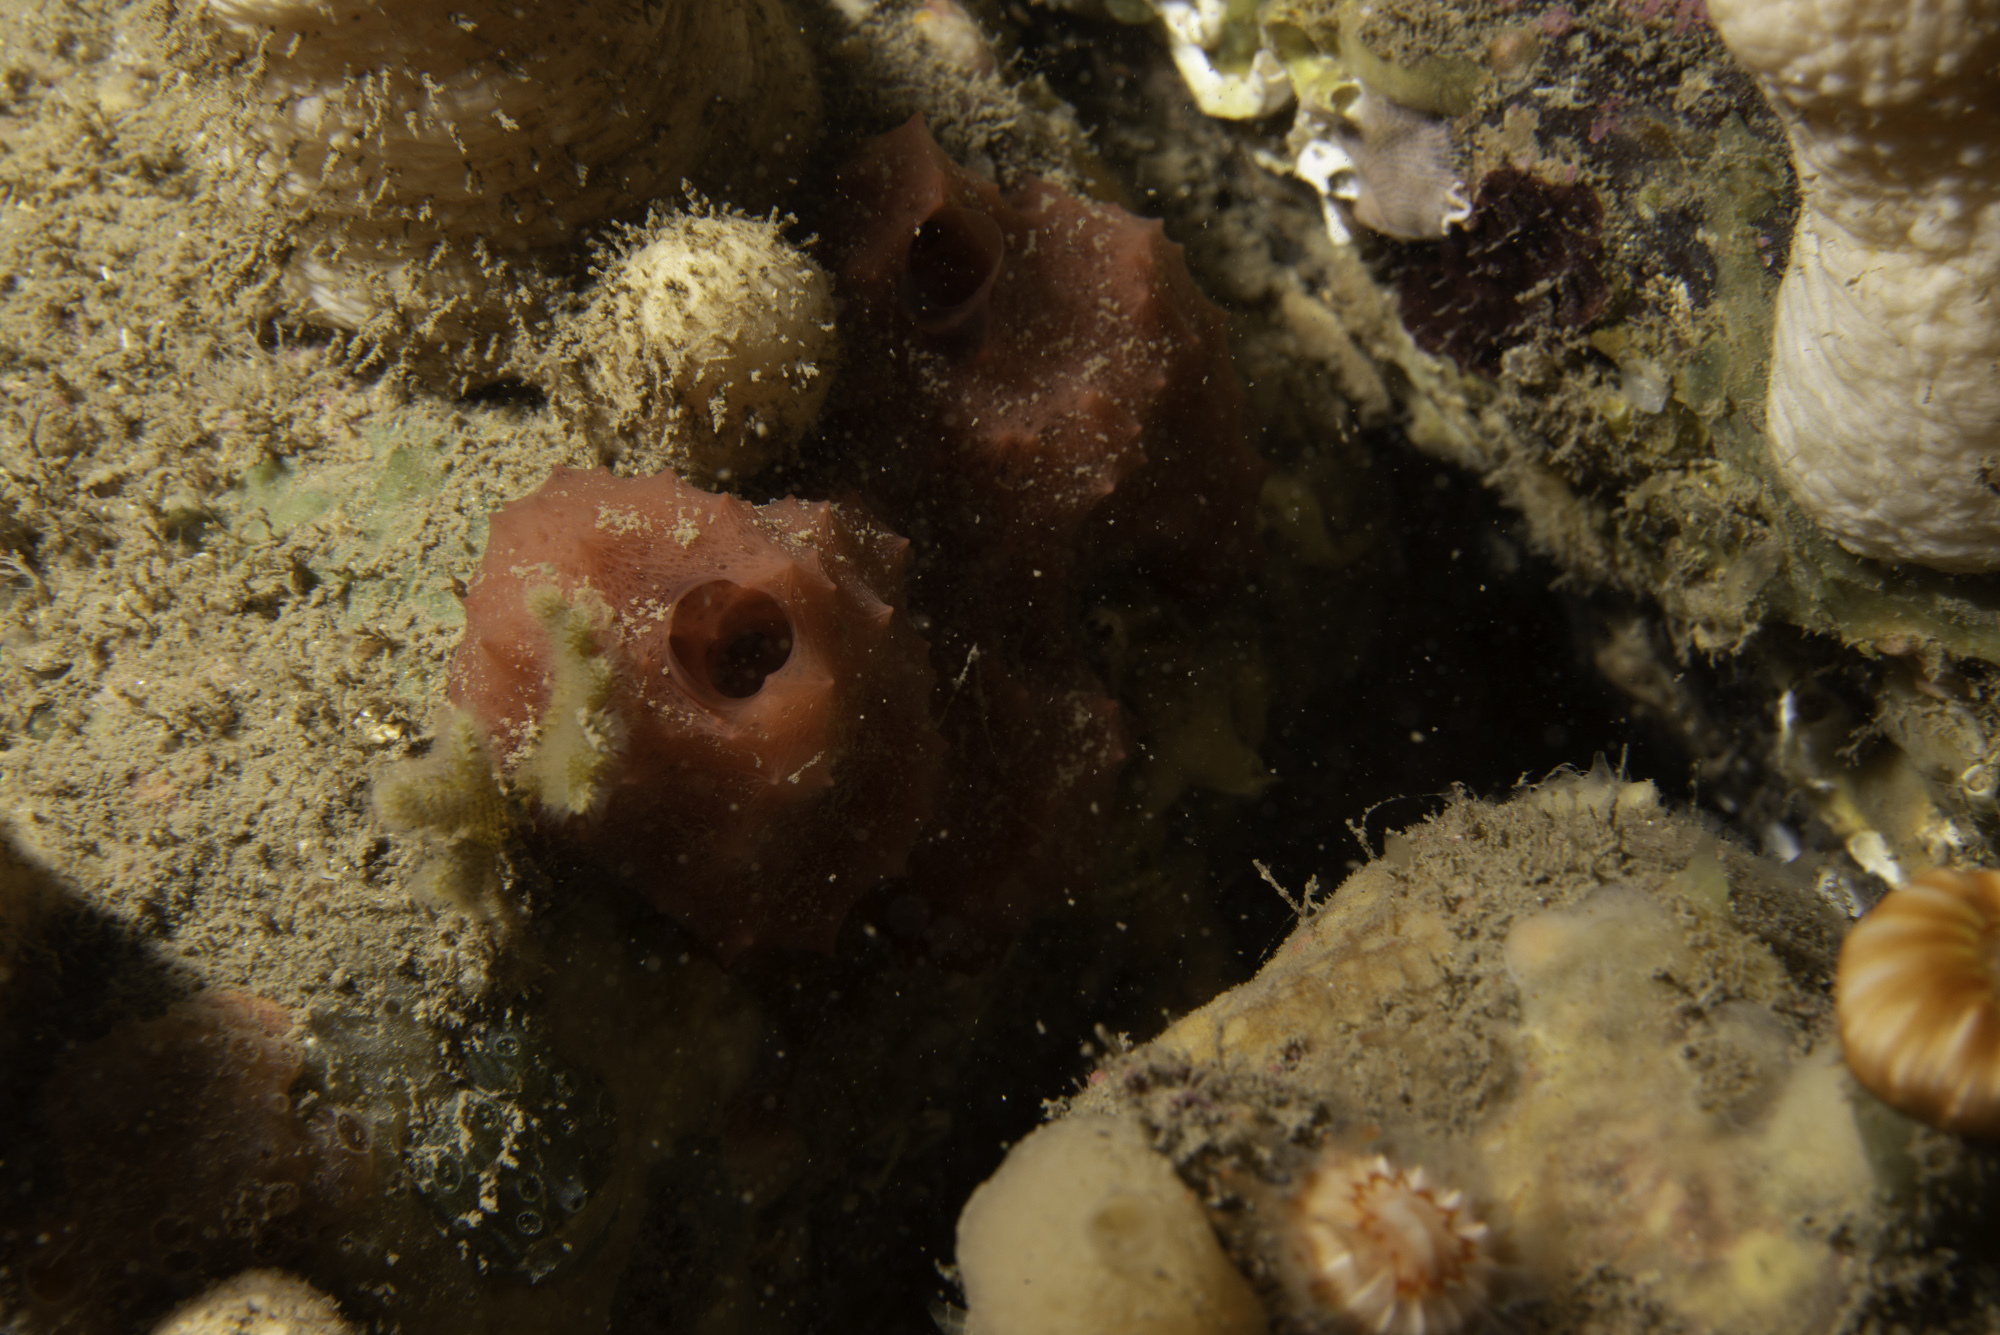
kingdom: Animalia
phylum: Porifera
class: Demospongiae
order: Dendroceratida
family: Darwinellidae
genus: Aplysilla
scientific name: Aplysilla rosea
